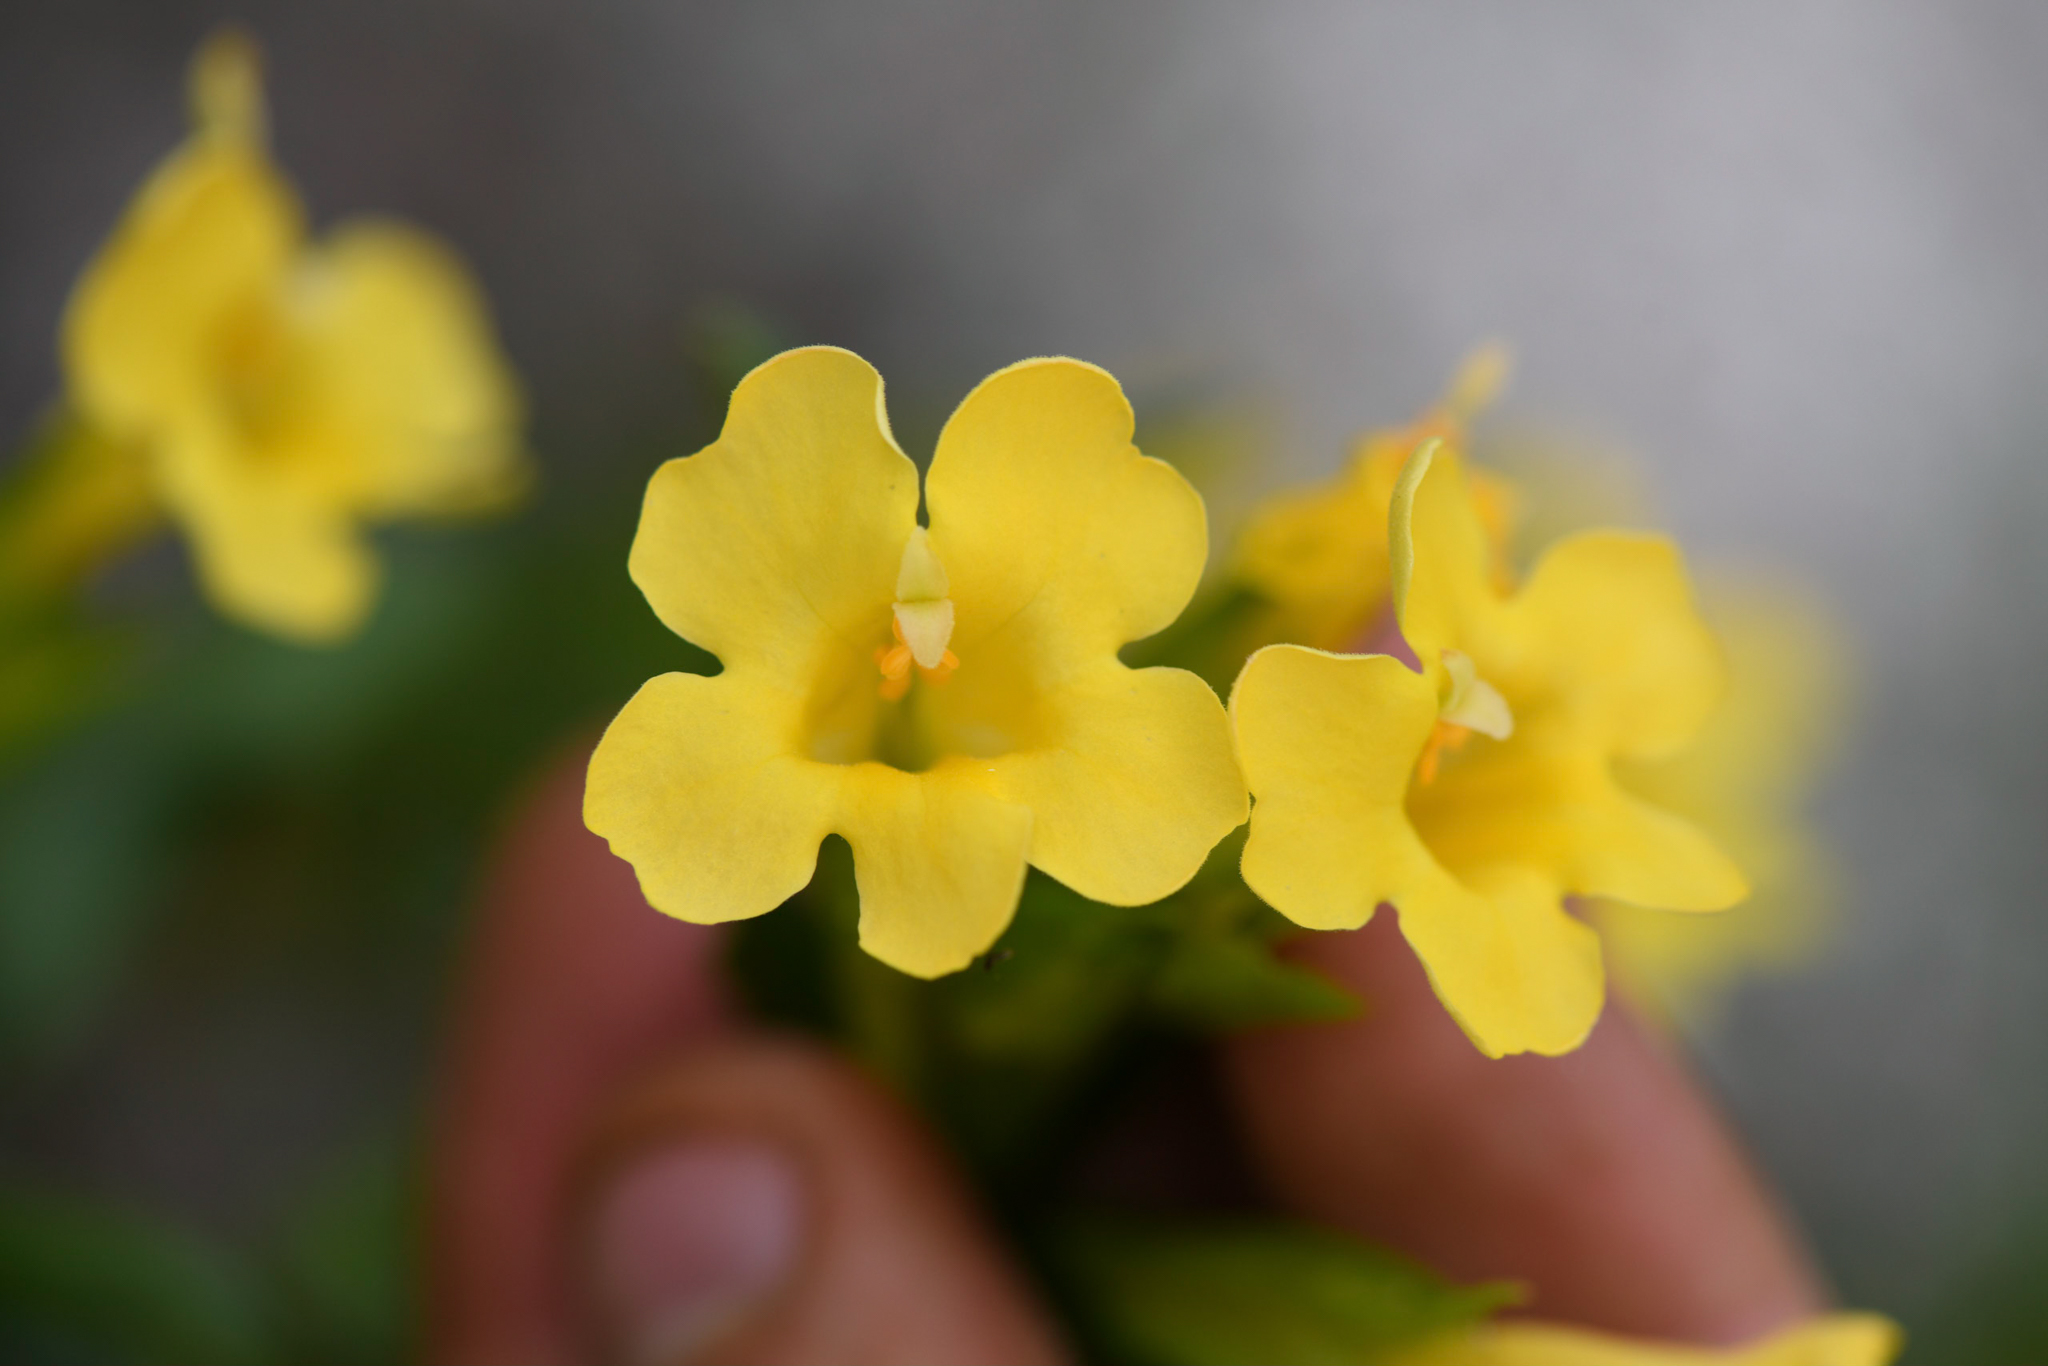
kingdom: Plantae
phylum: Tracheophyta
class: Magnoliopsida
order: Lamiales
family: Phrymaceae
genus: Diplacus
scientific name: Diplacus aridus
